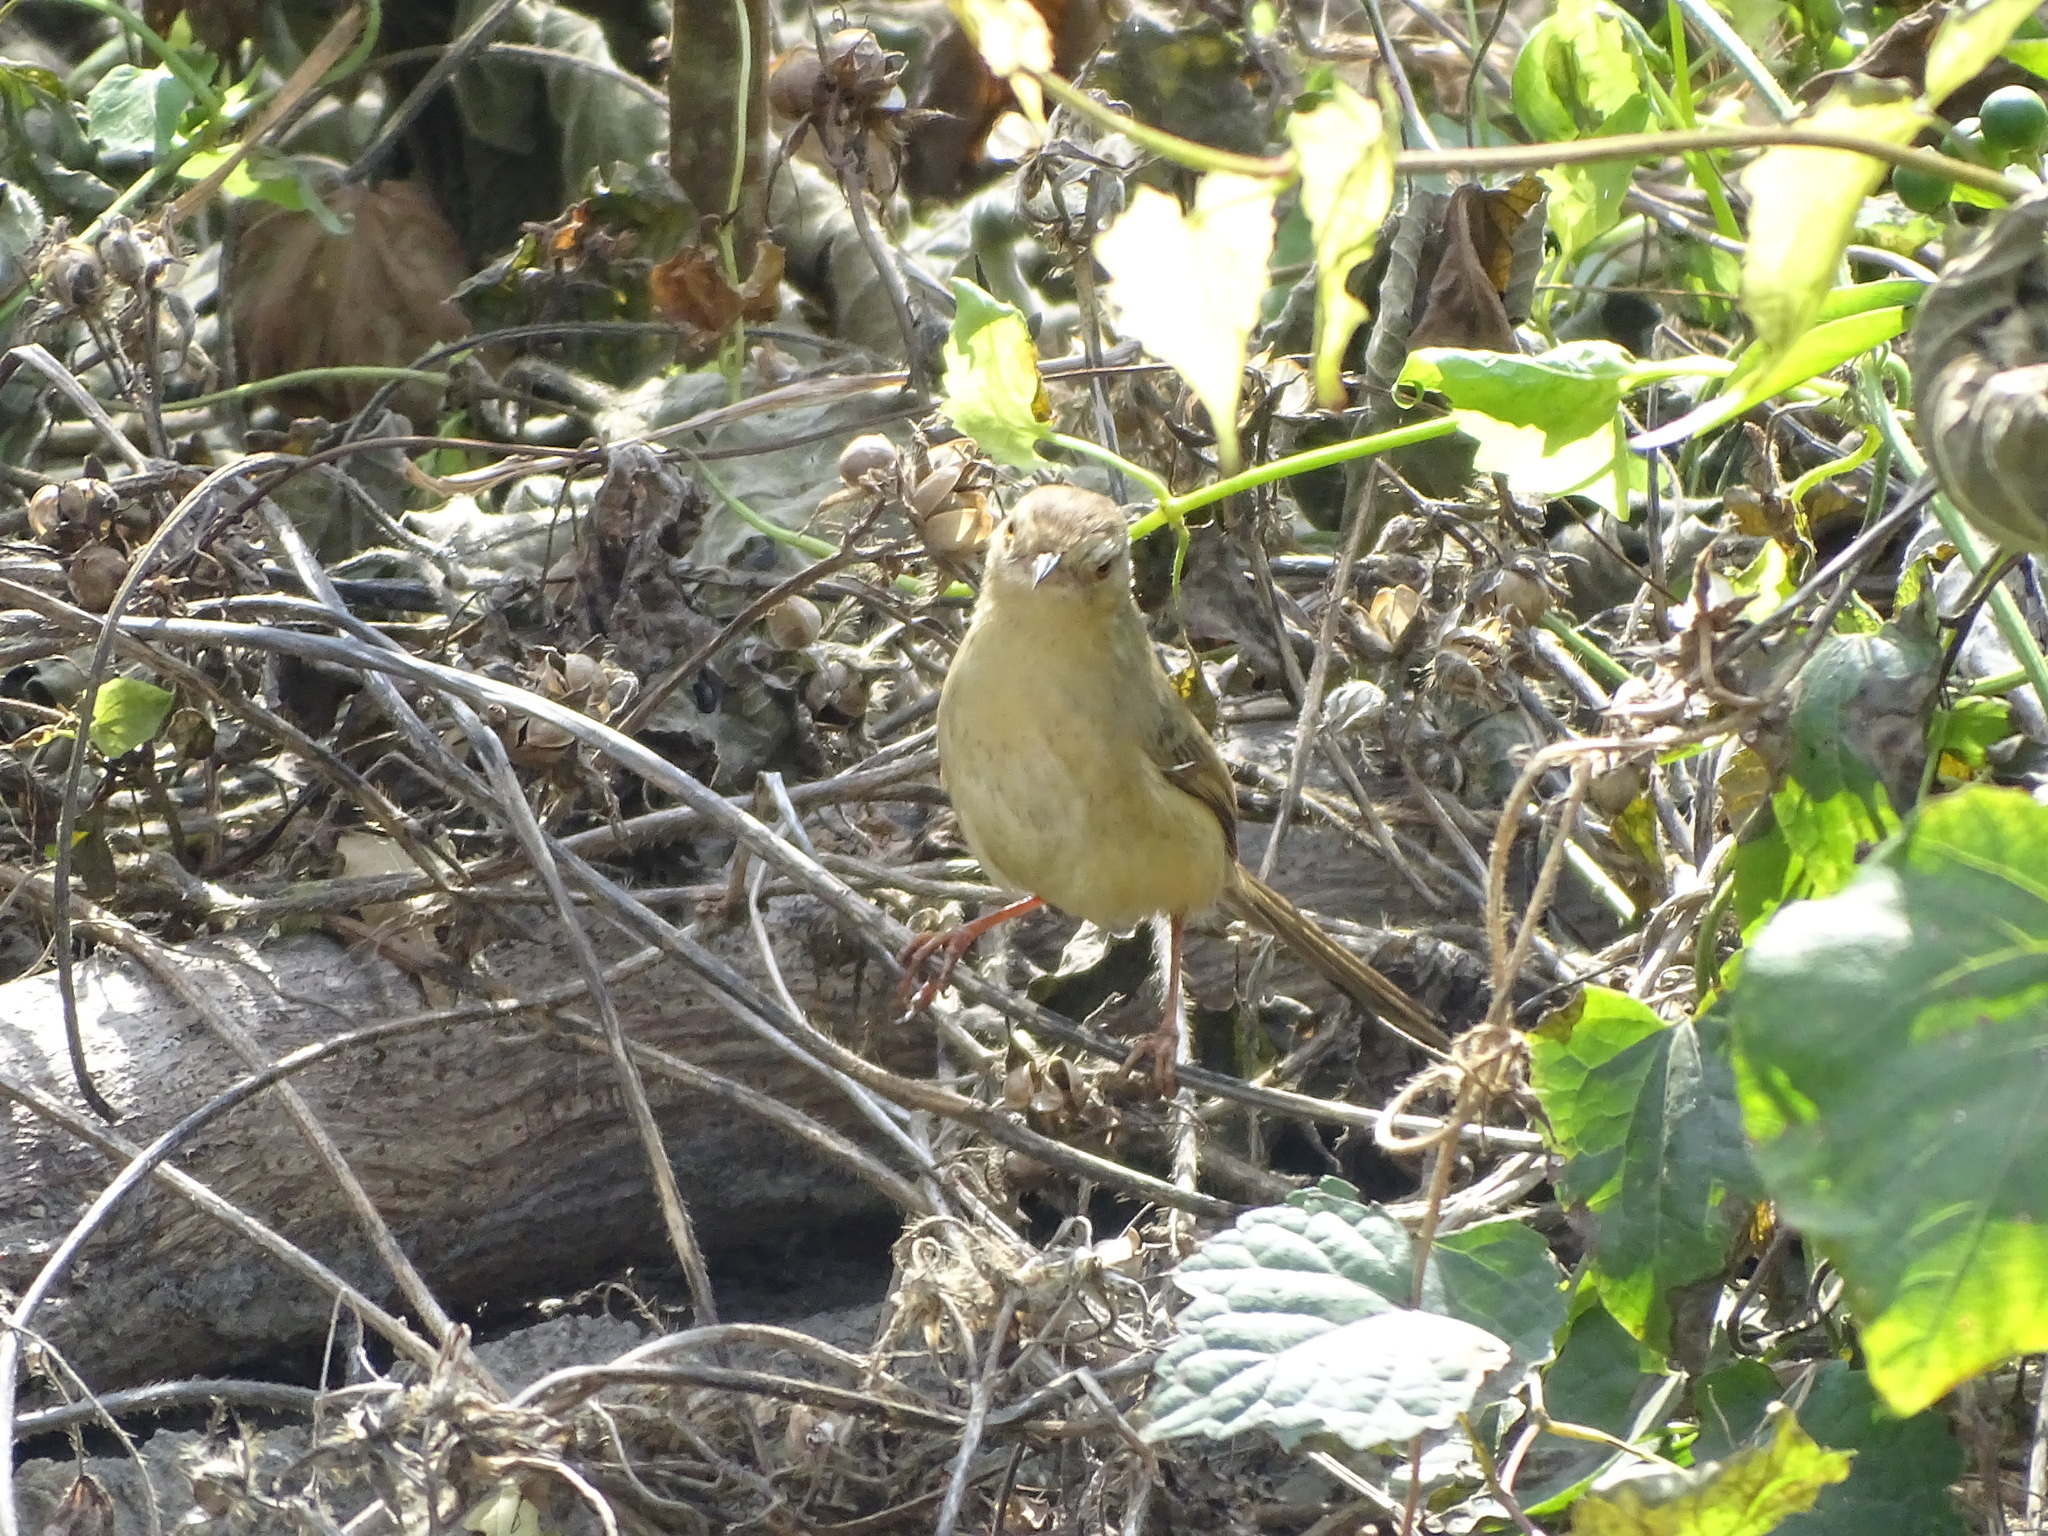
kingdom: Animalia
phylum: Chordata
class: Aves
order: Passeriformes
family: Cisticolidae
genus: Prinia
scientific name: Prinia inornata
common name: Plain prinia
